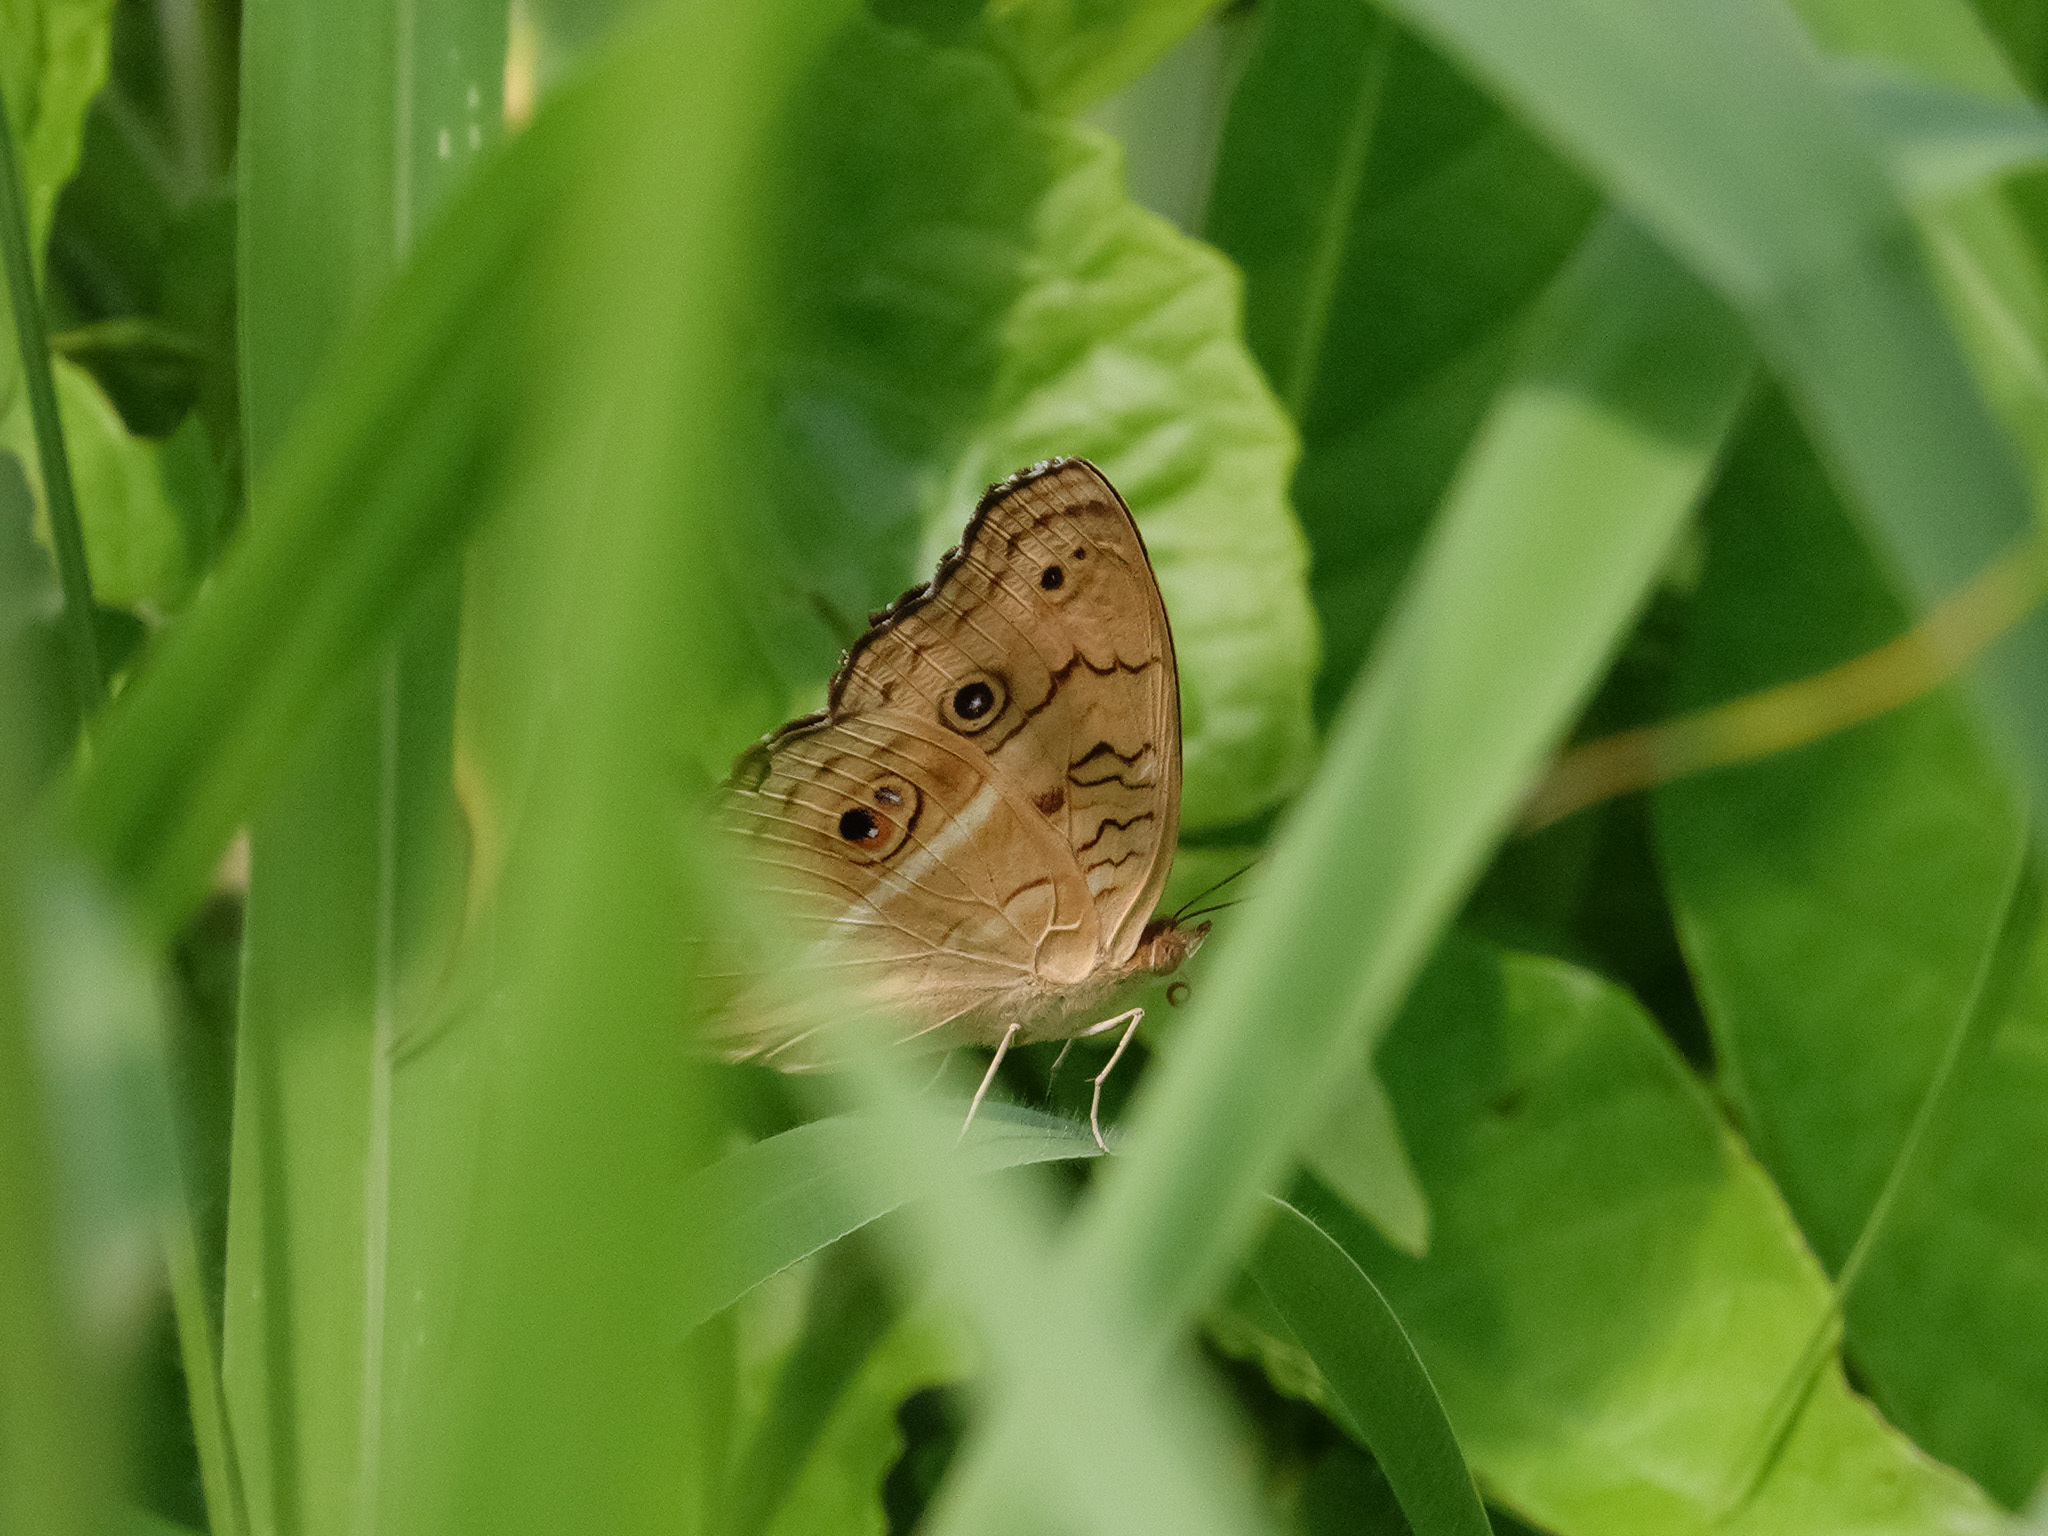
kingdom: Animalia
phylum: Arthropoda
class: Insecta
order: Lepidoptera
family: Nymphalidae
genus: Junonia
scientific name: Junonia almana
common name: Peacock pansy
